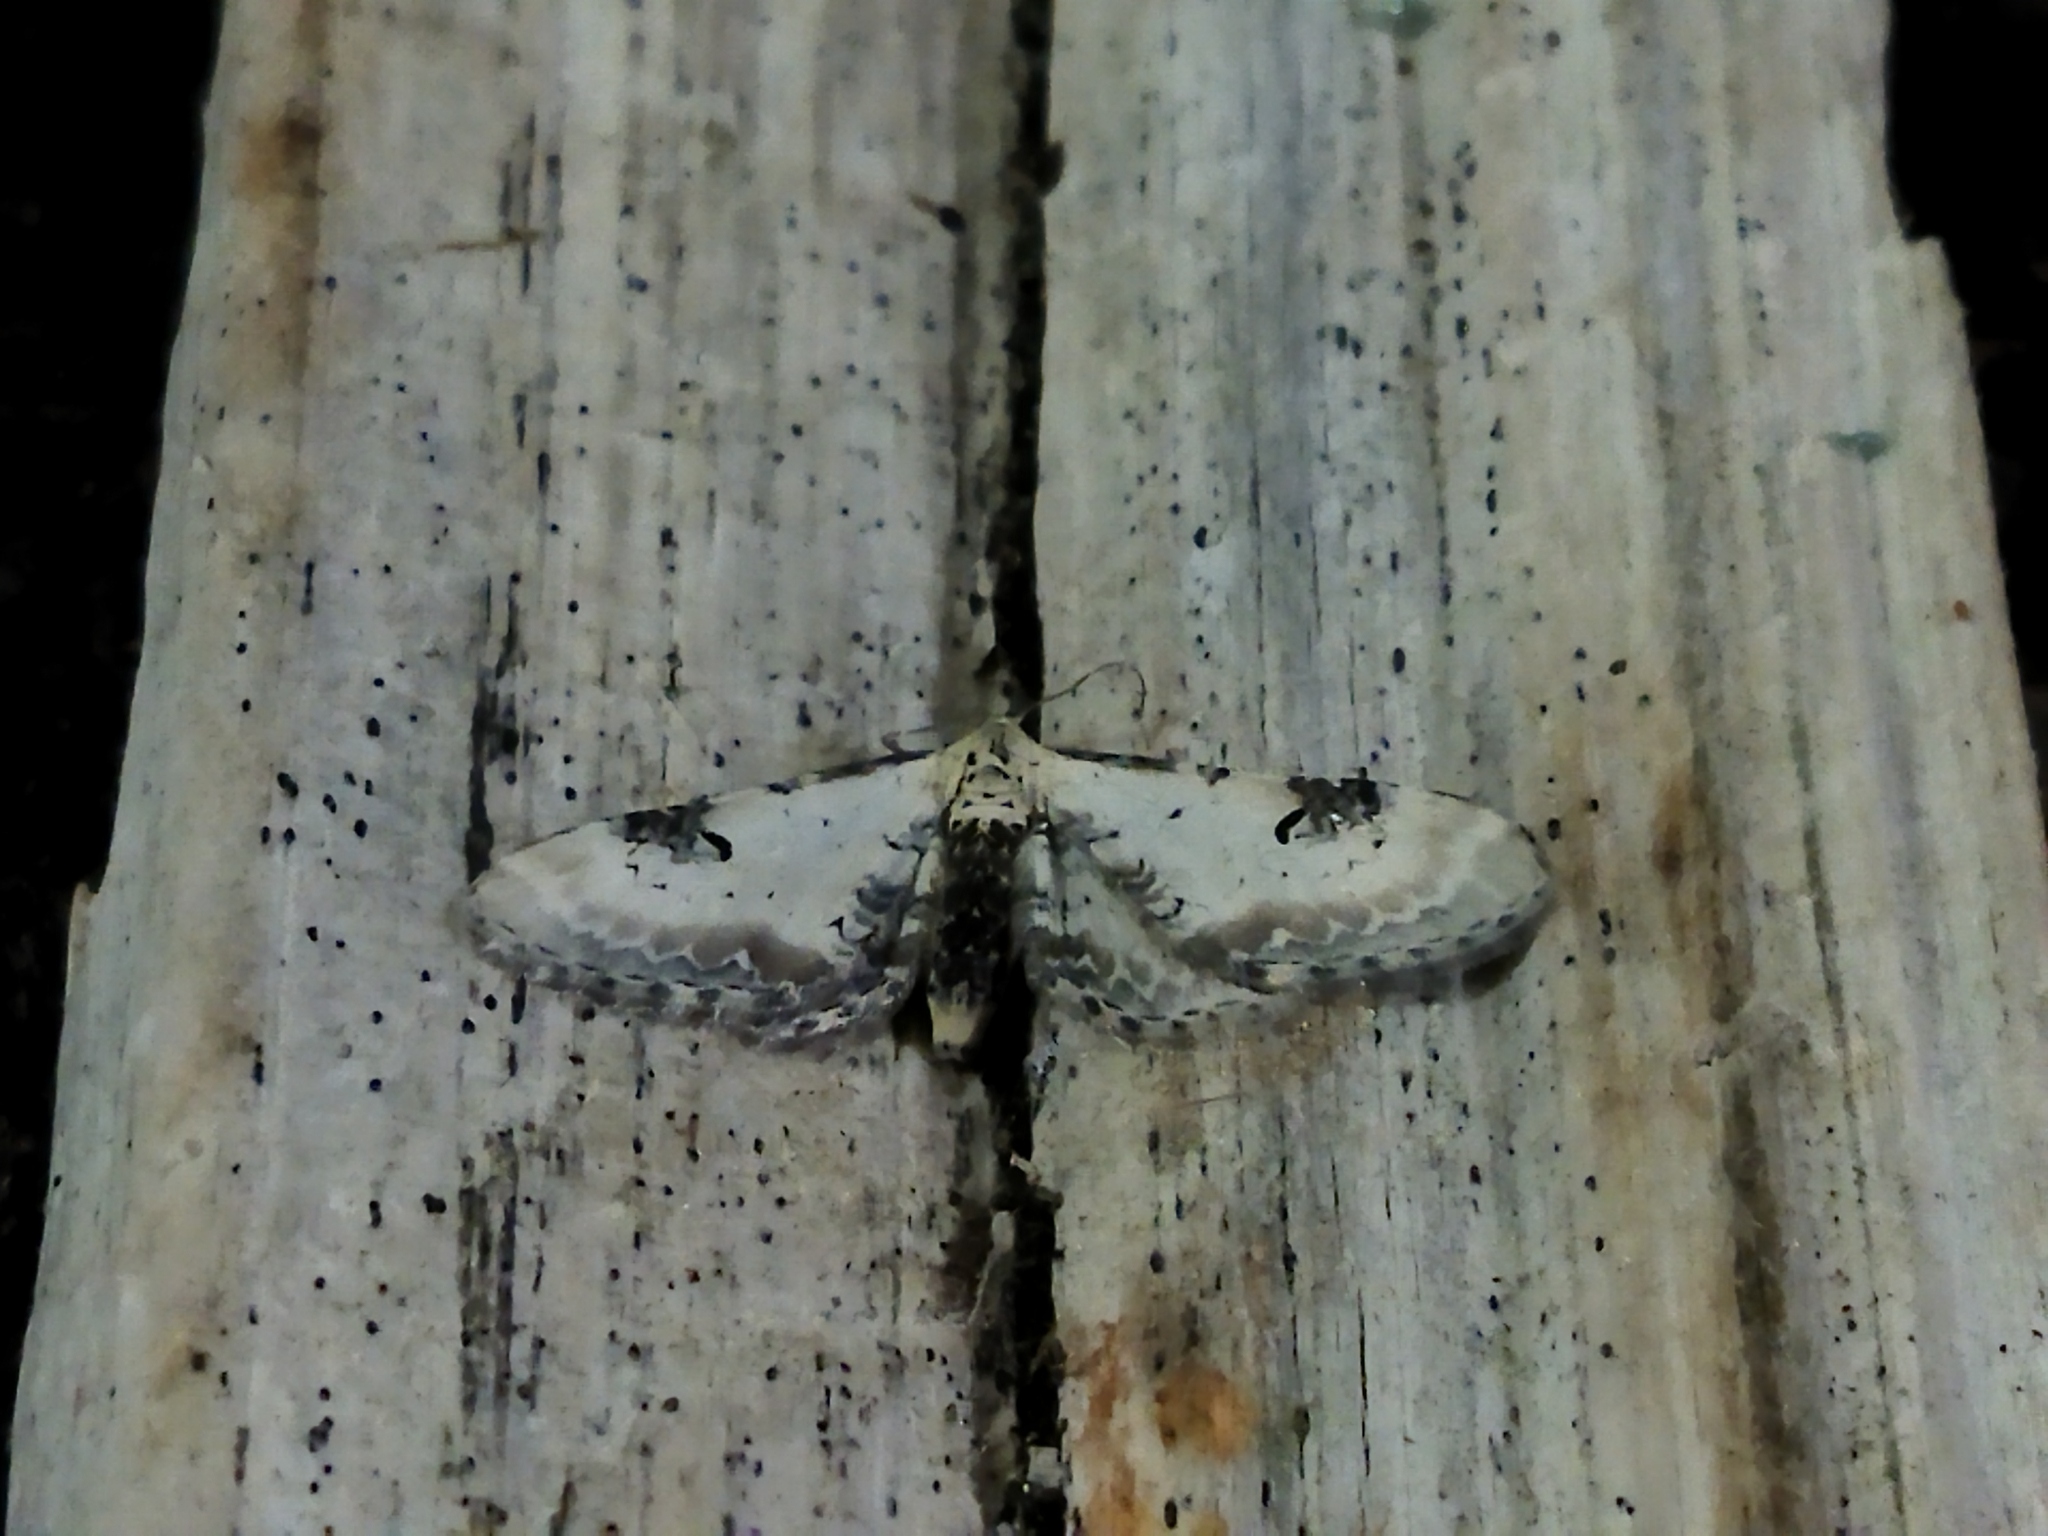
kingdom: Animalia
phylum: Arthropoda
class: Insecta
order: Lepidoptera
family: Geometridae
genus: Eupithecia
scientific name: Eupithecia centaureata
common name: Lime-speck pug
